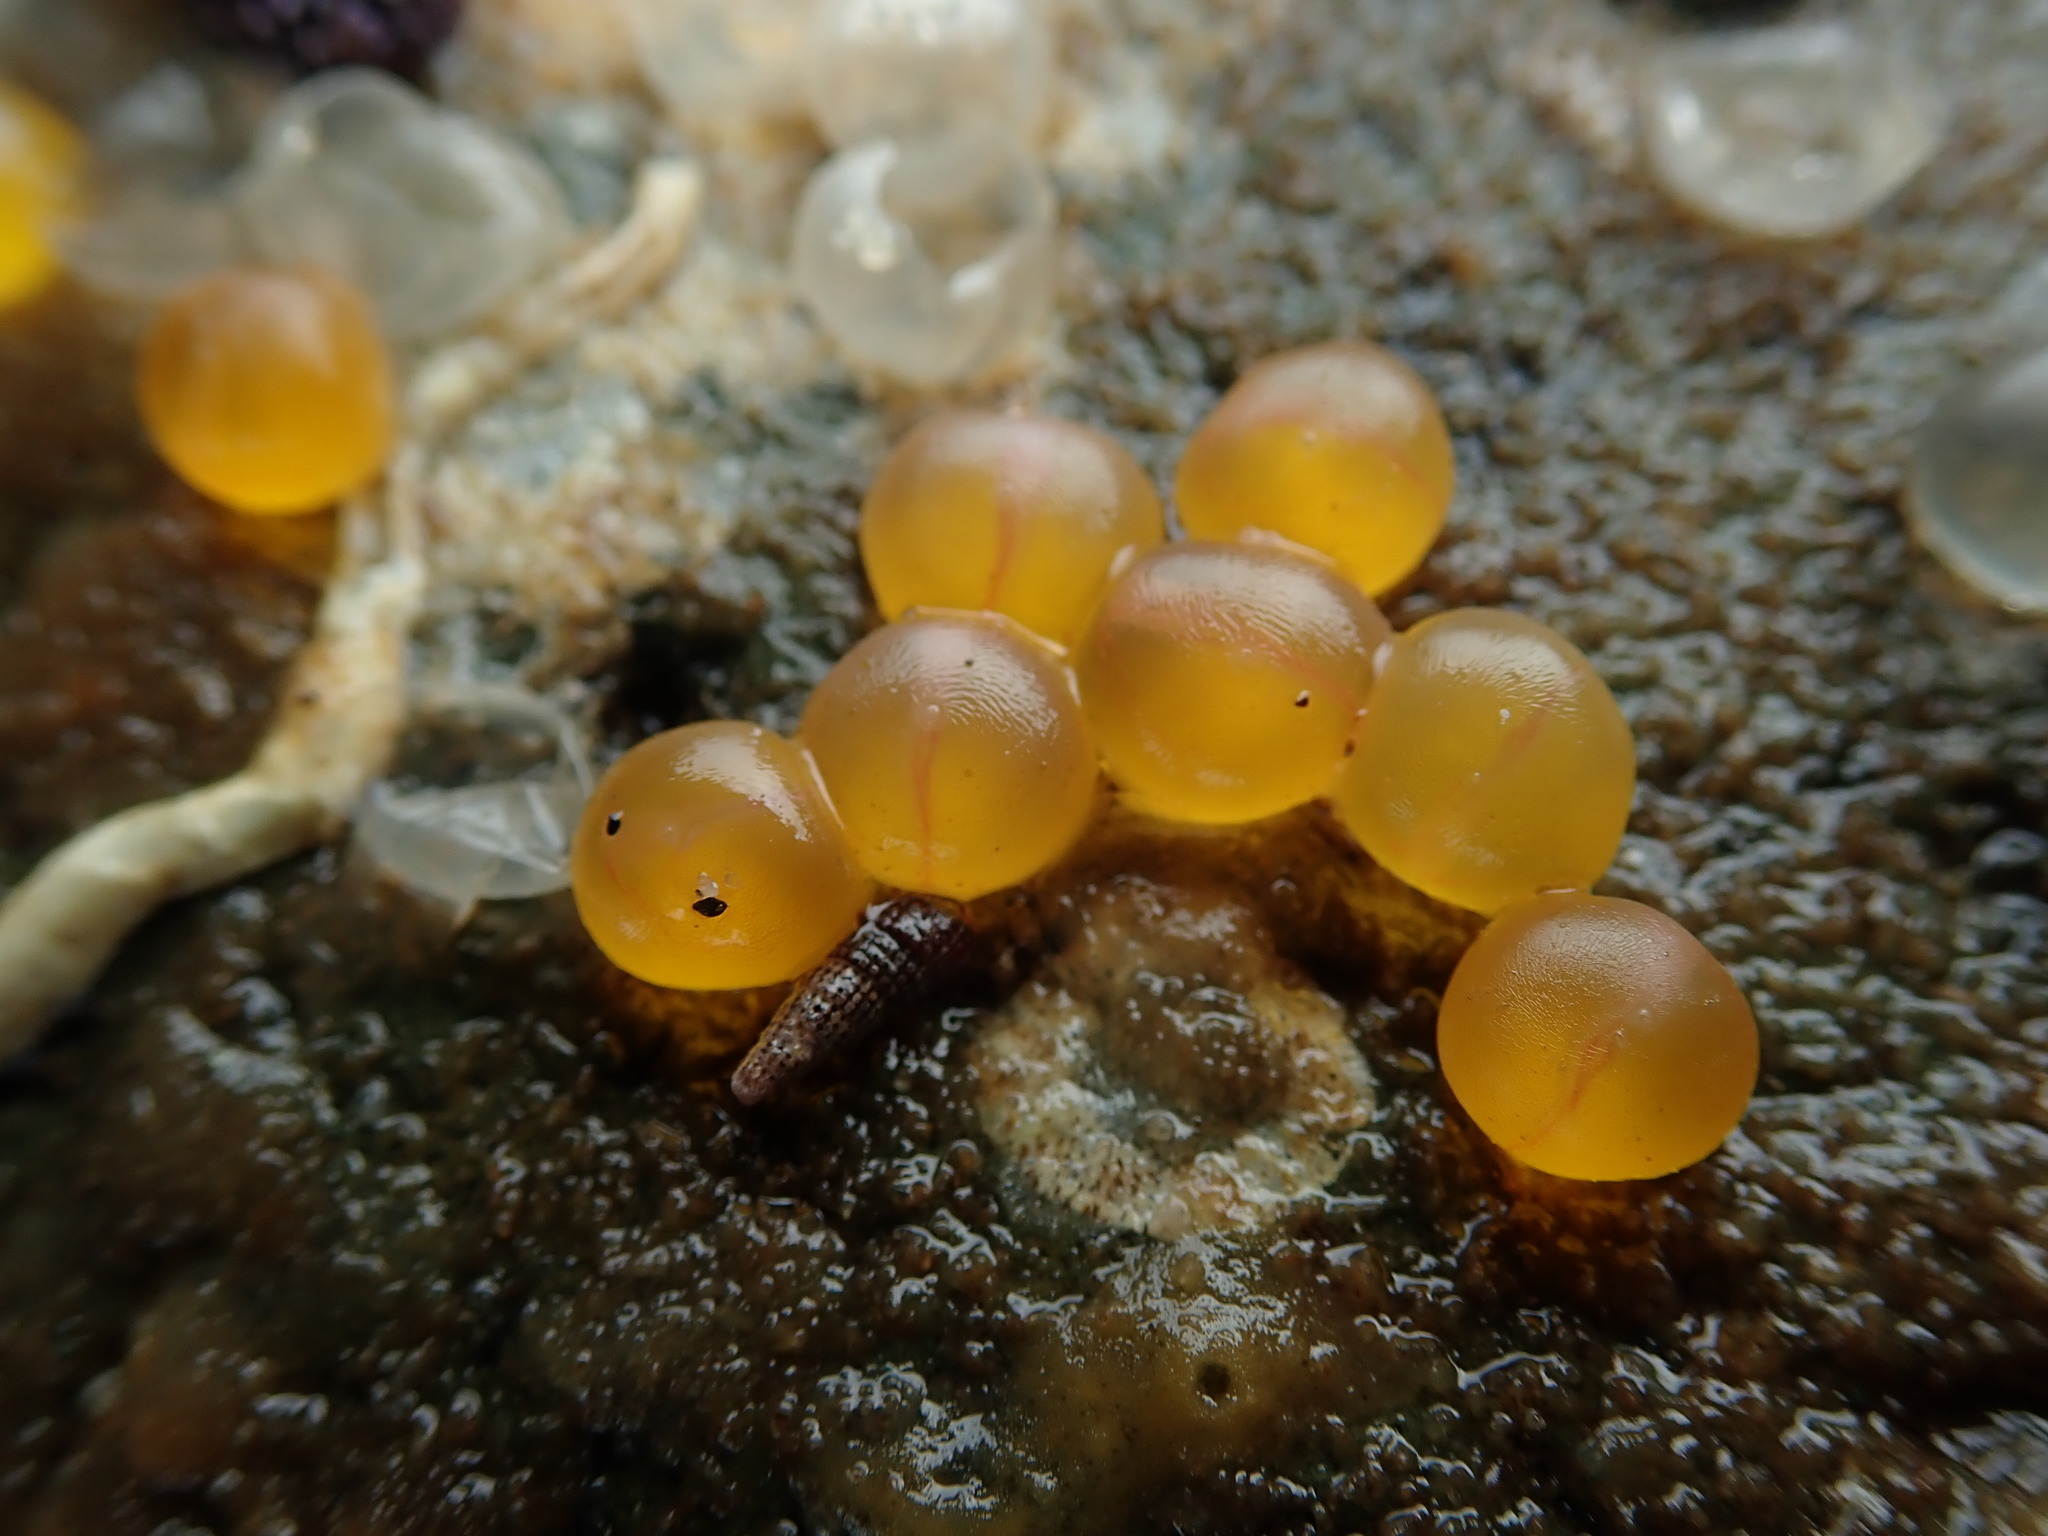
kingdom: Animalia
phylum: Chordata
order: Batrachoidiformes
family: Batrachoididae
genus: Porichthys
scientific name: Porichthys notatus
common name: Plainfin midshipman
